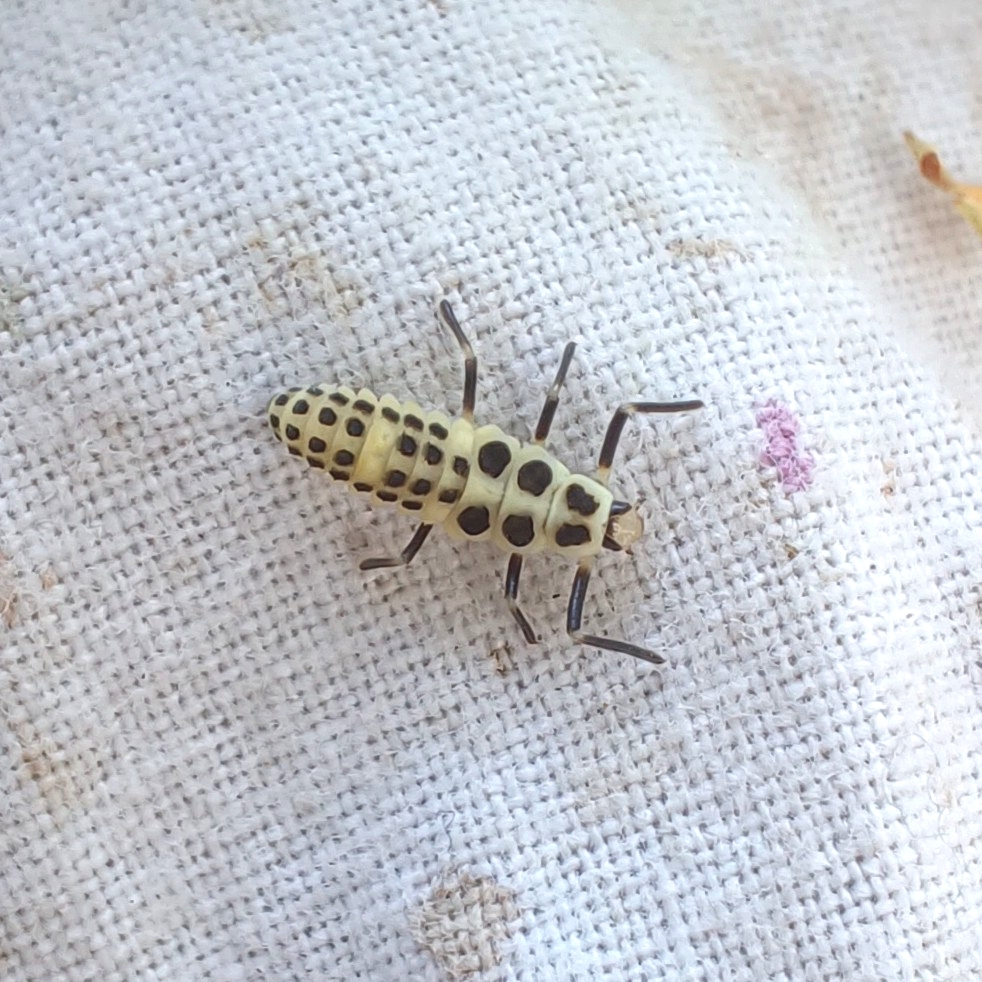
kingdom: Animalia
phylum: Arthropoda
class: Insecta
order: Coleoptera
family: Coccinellidae
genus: Calvia
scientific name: Calvia decemguttata
